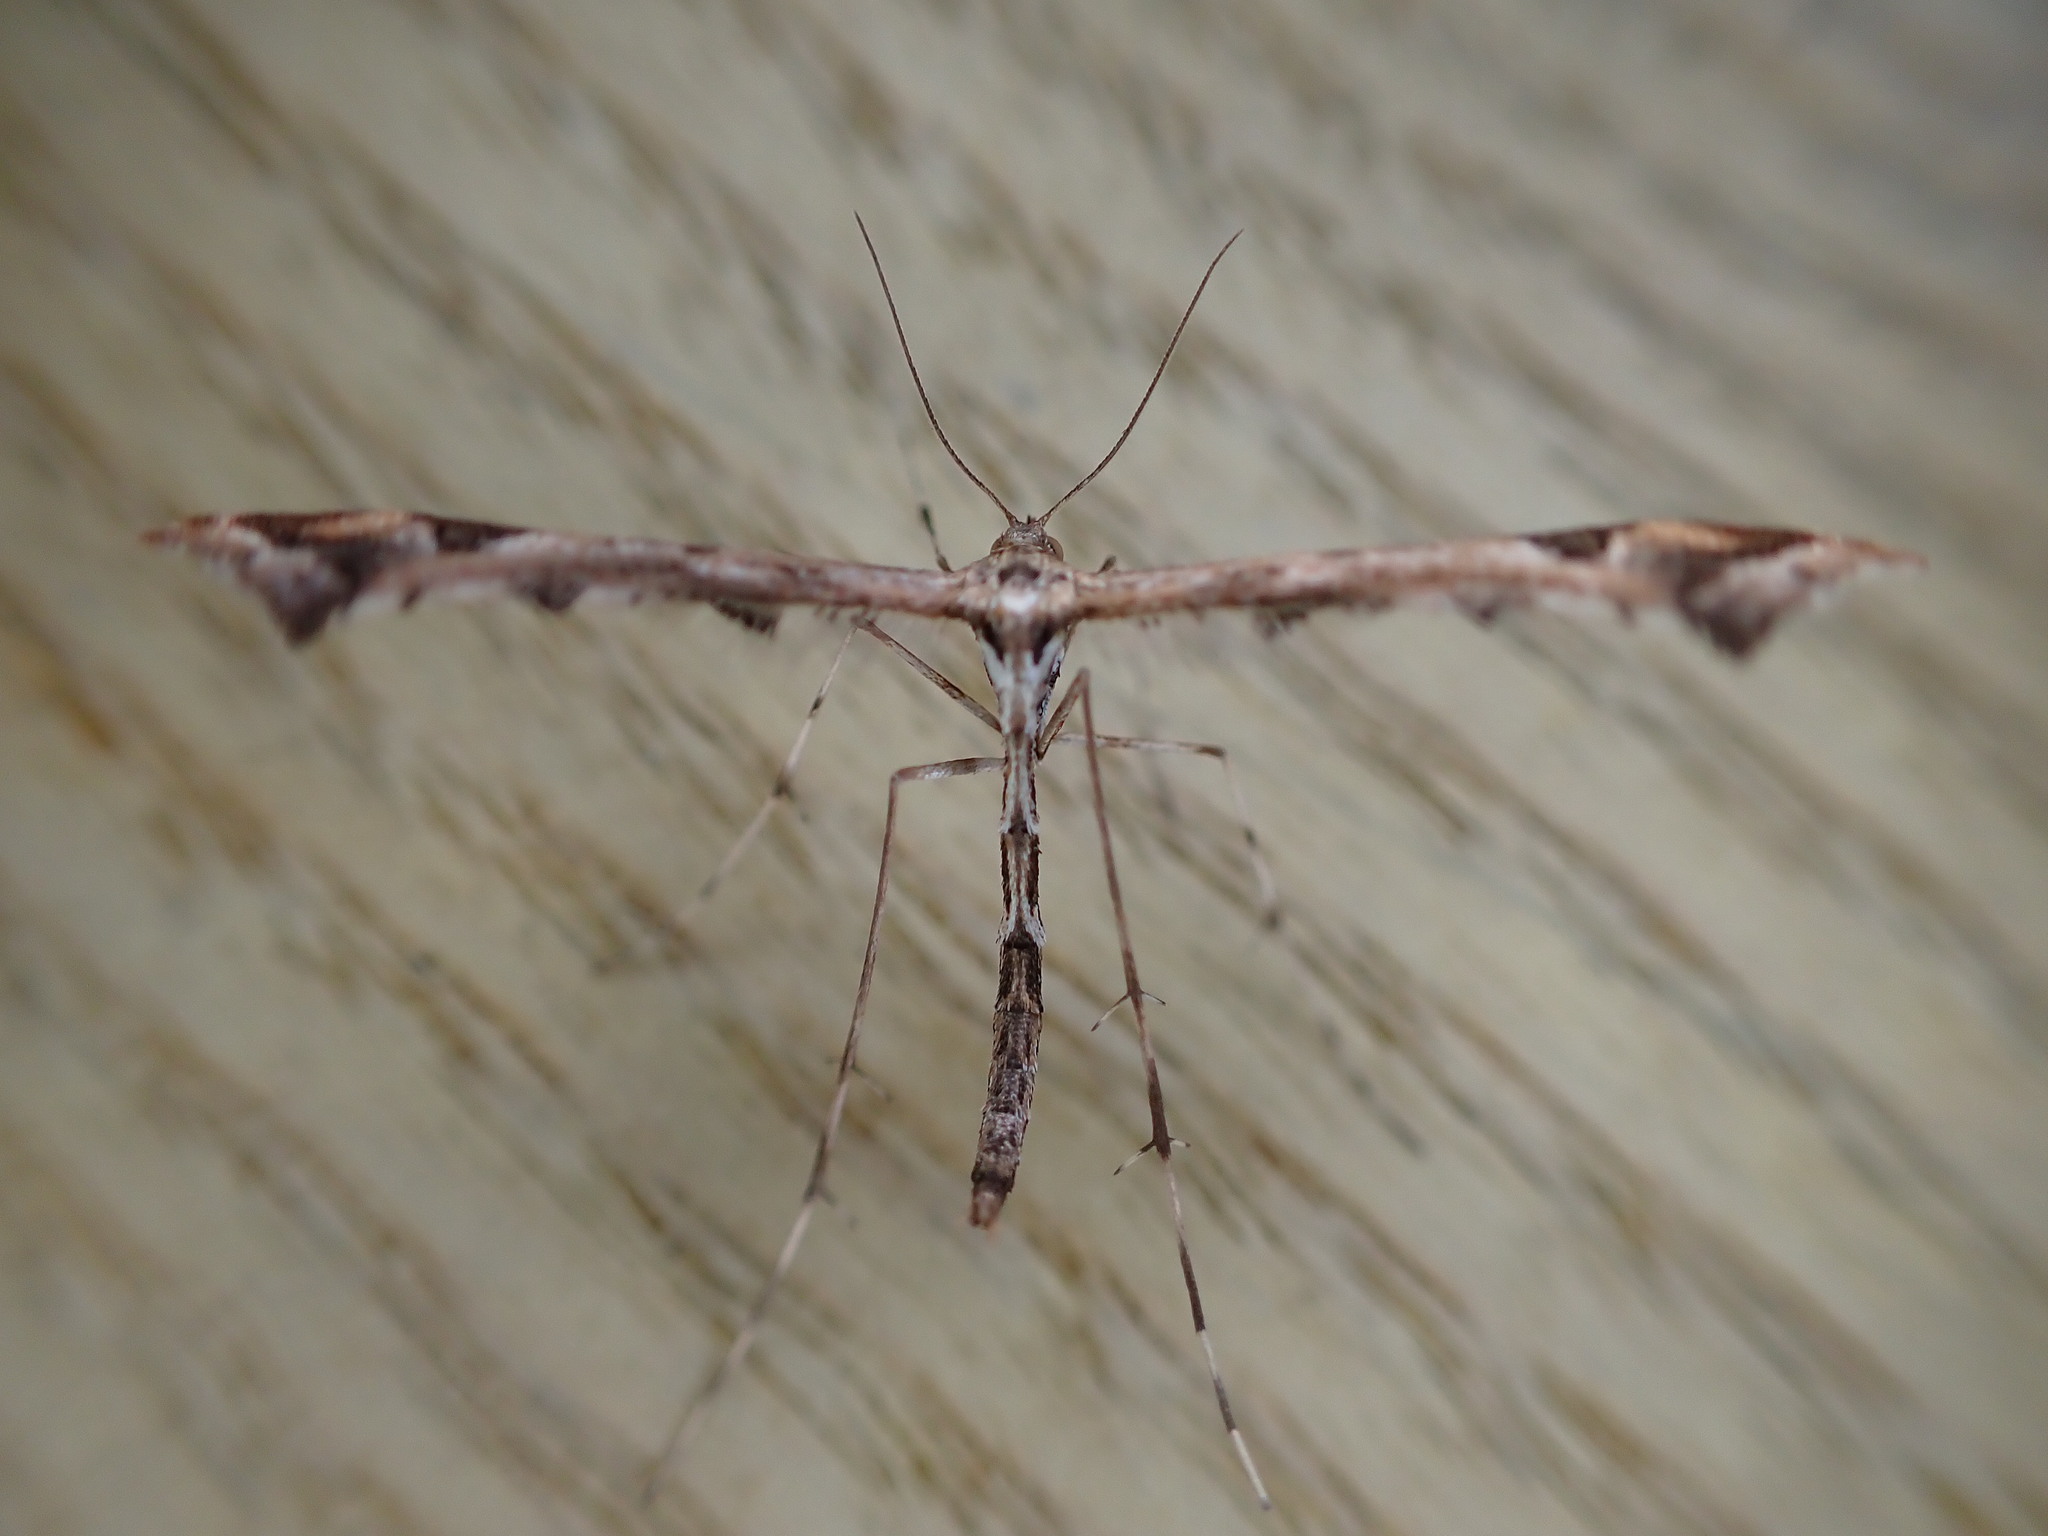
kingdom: Animalia
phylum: Arthropoda
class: Insecta
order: Lepidoptera
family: Pterophoridae
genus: Amblyptilia
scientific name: Amblyptilia acanthadactyla
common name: Beautiful plume
